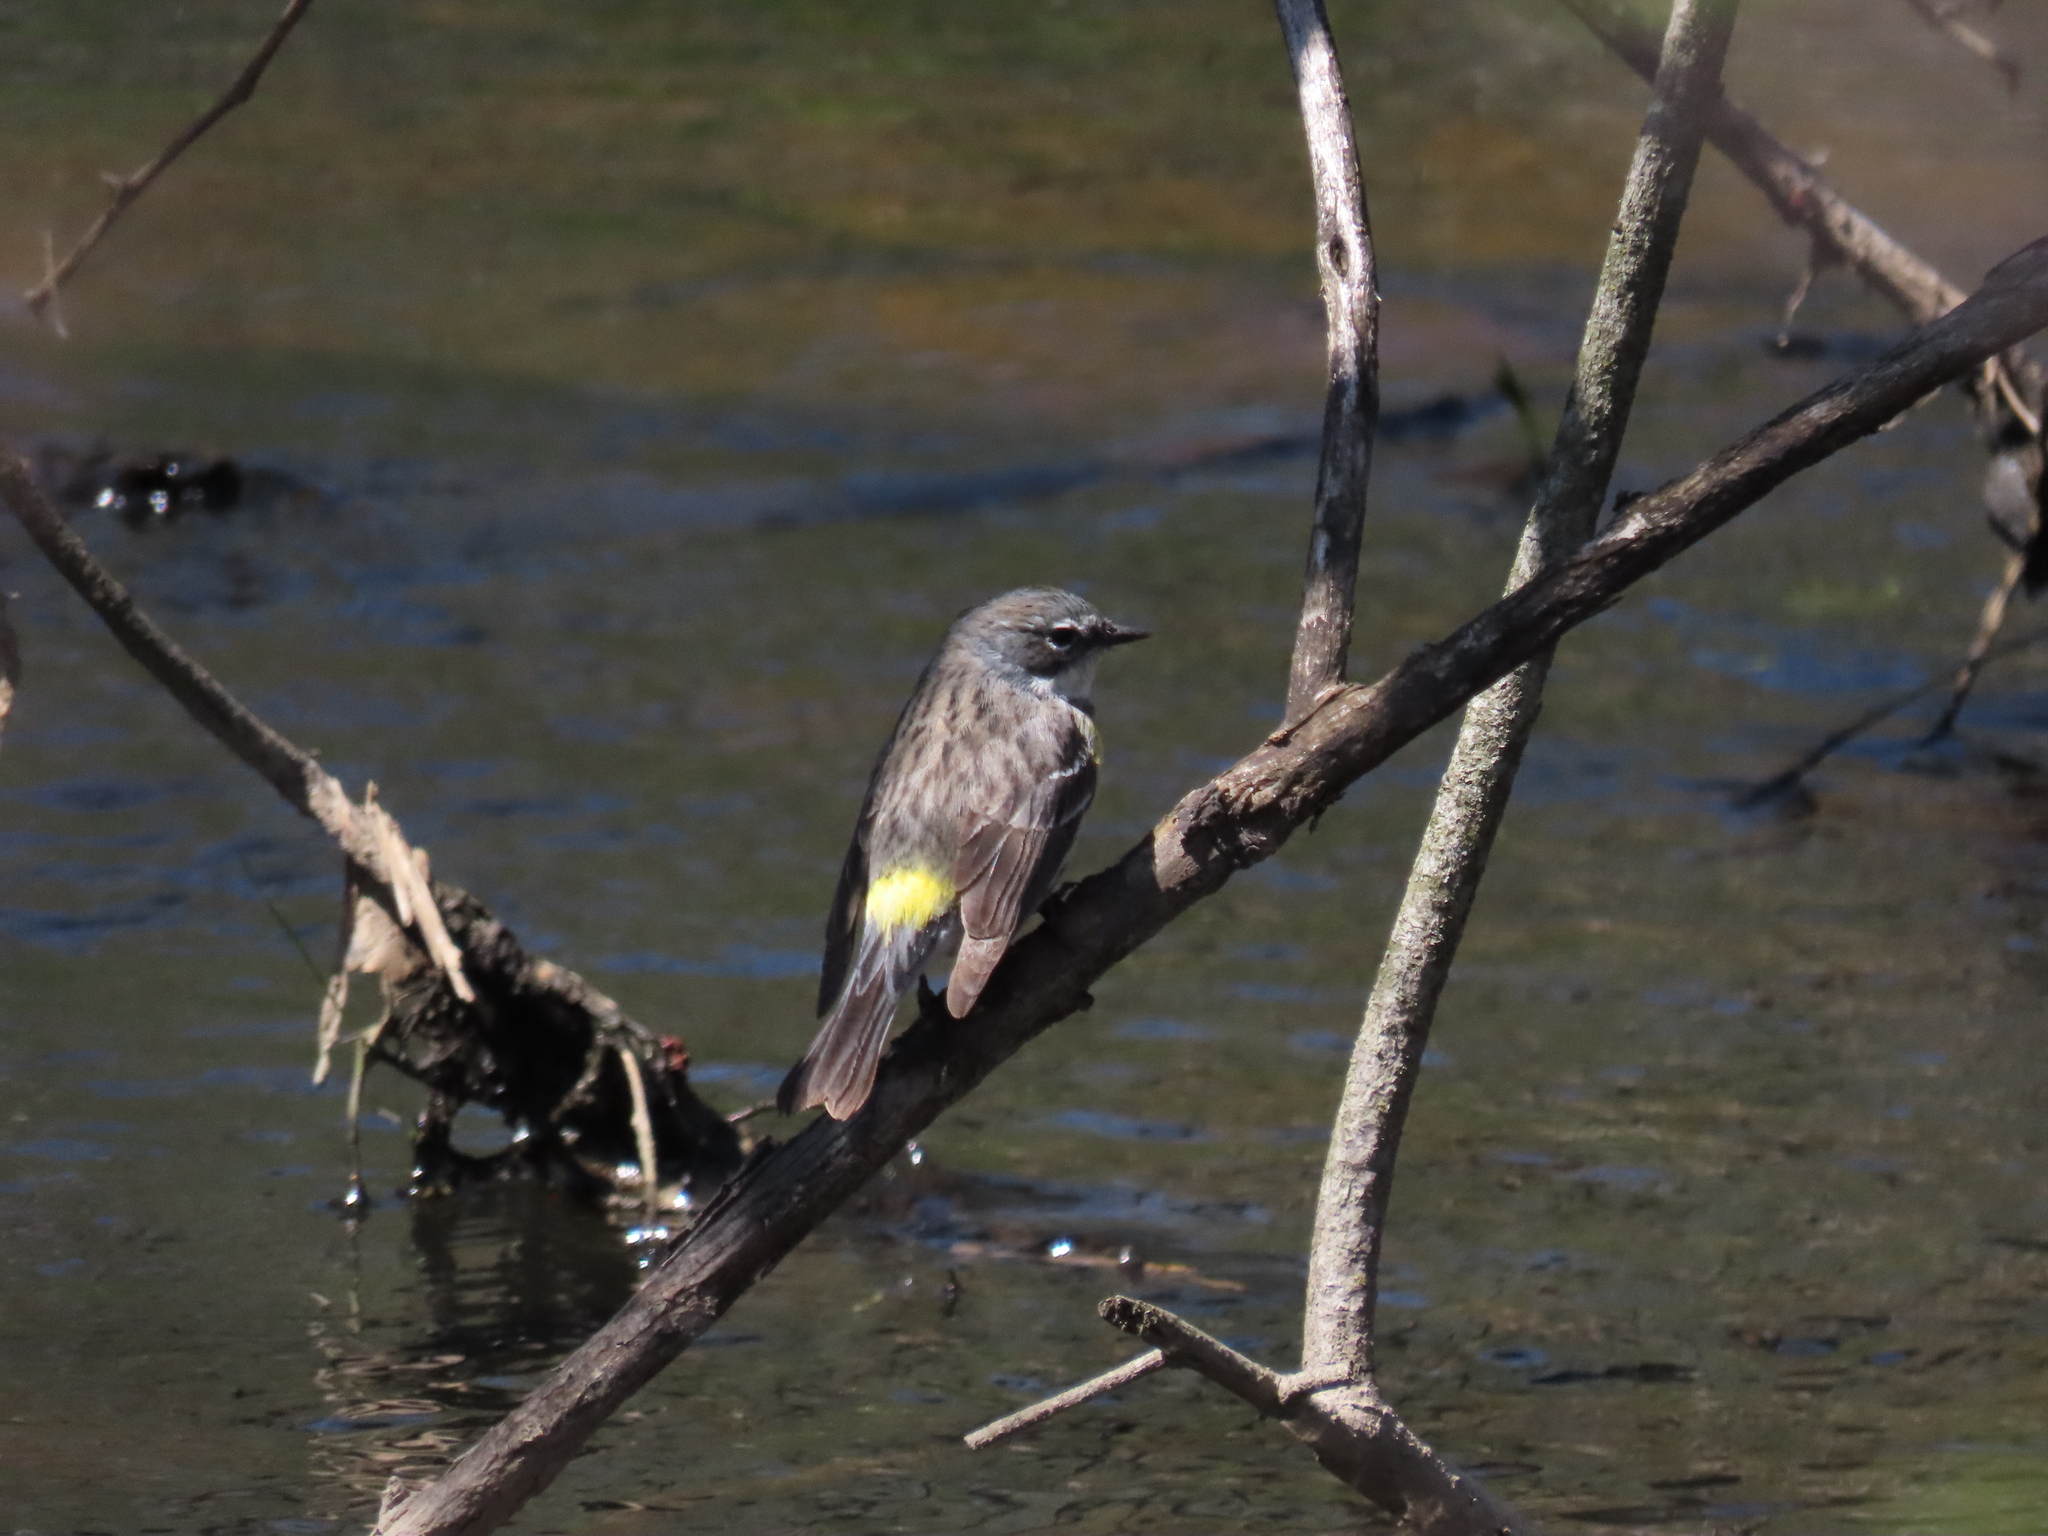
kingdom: Animalia
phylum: Chordata
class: Aves
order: Passeriformes
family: Parulidae
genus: Setophaga
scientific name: Setophaga coronata
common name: Myrtle warbler
